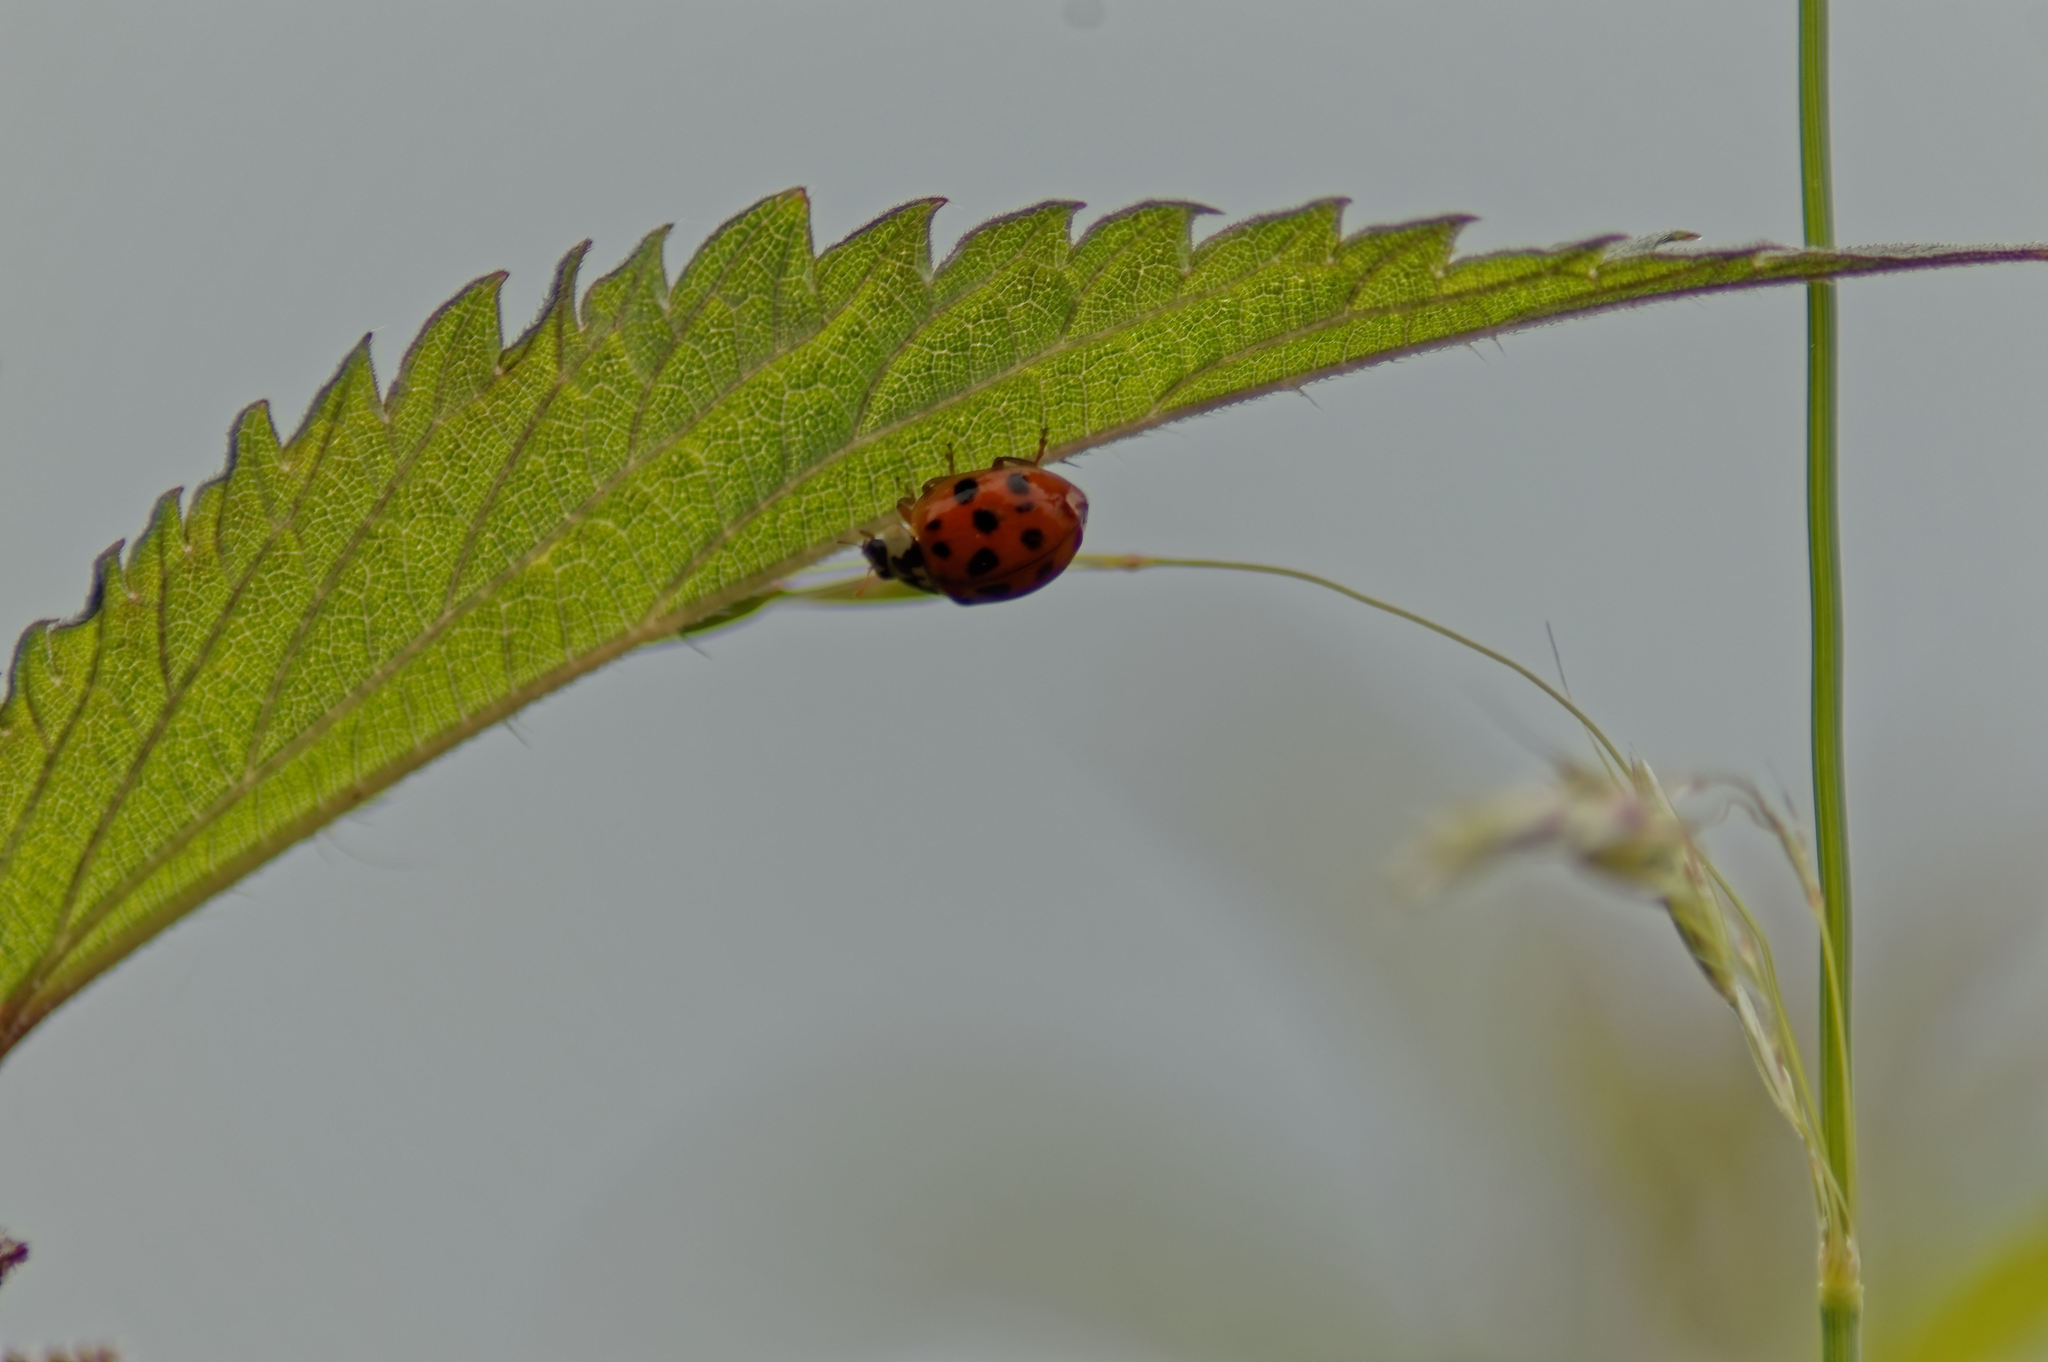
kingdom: Animalia
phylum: Arthropoda
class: Insecta
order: Coleoptera
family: Coccinellidae
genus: Harmonia
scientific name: Harmonia axyridis
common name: Harlequin ladybird
